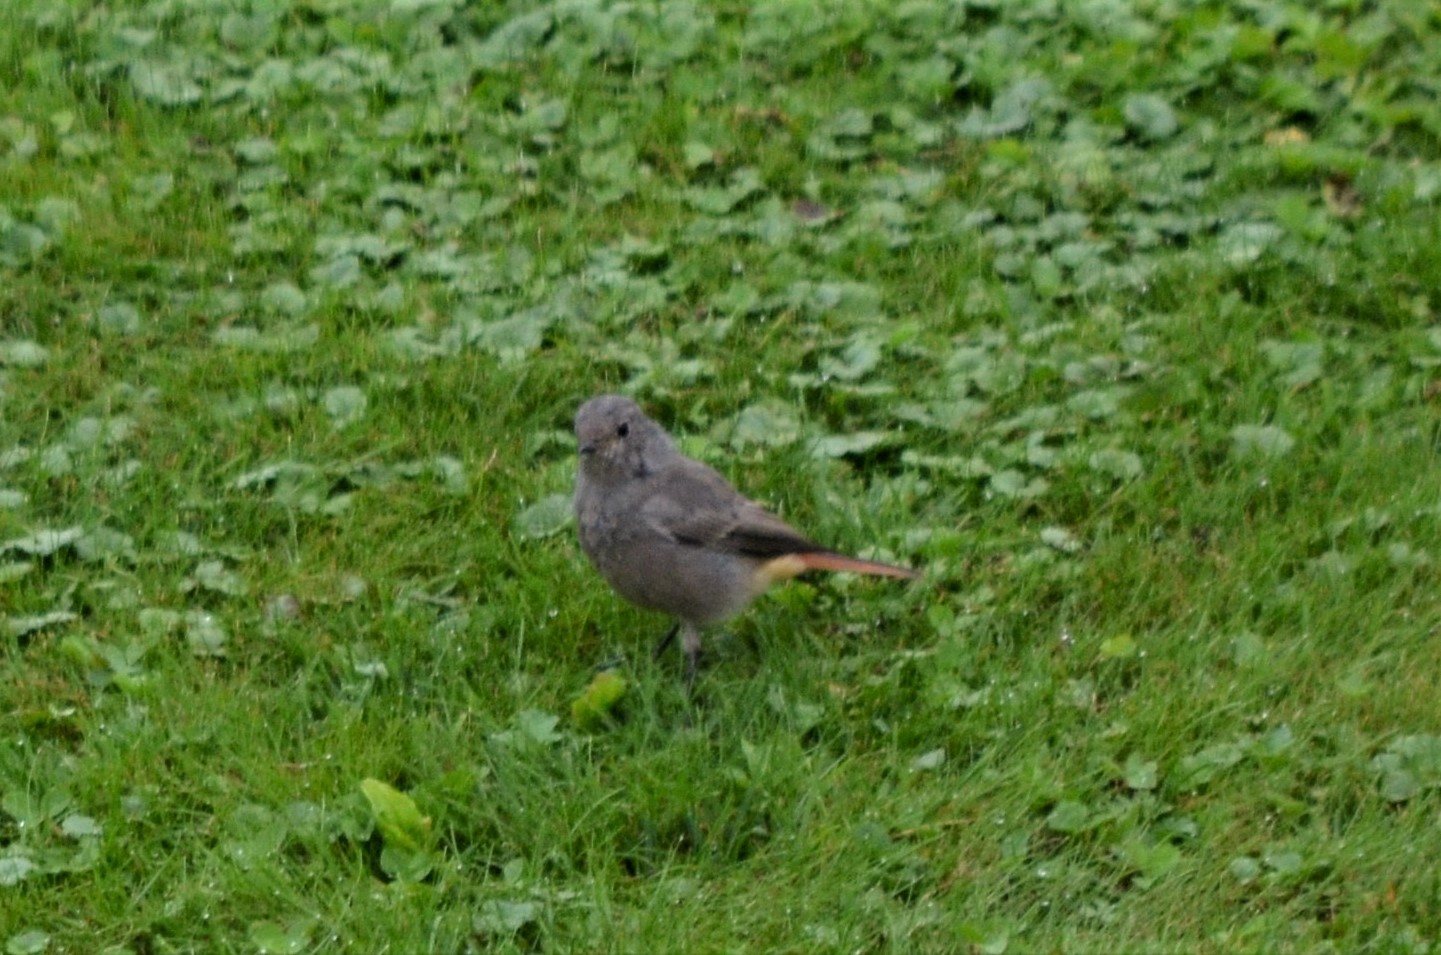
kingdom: Animalia
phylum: Chordata
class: Aves
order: Passeriformes
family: Muscicapidae
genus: Phoenicurus
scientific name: Phoenicurus ochruros
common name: Black redstart
